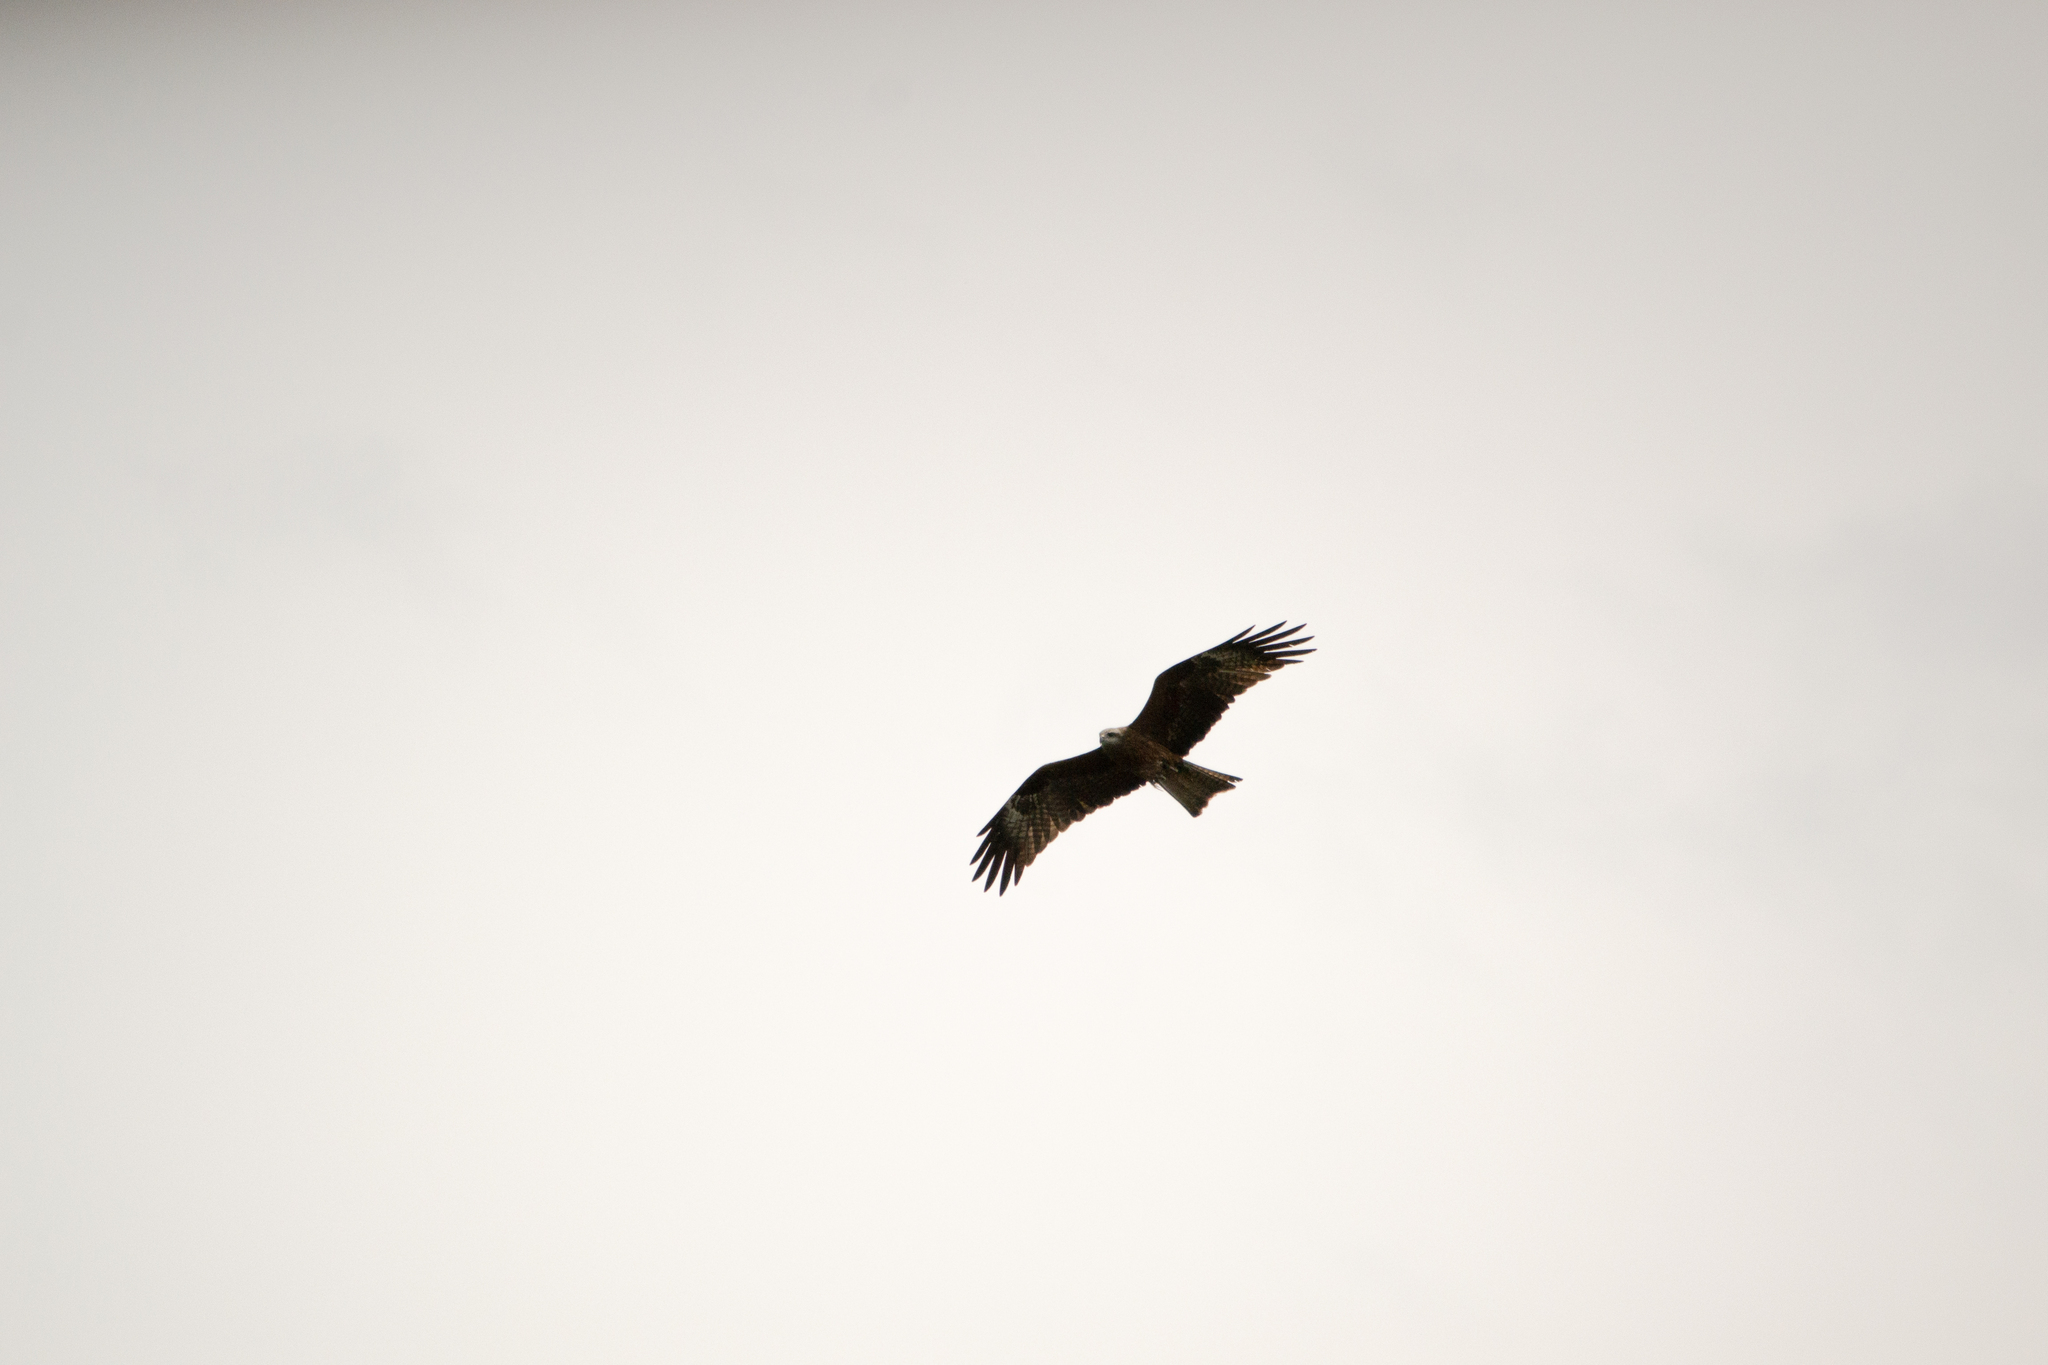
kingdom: Animalia
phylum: Chordata
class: Aves
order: Accipitriformes
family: Accipitridae
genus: Milvus
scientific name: Milvus migrans
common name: Black kite
